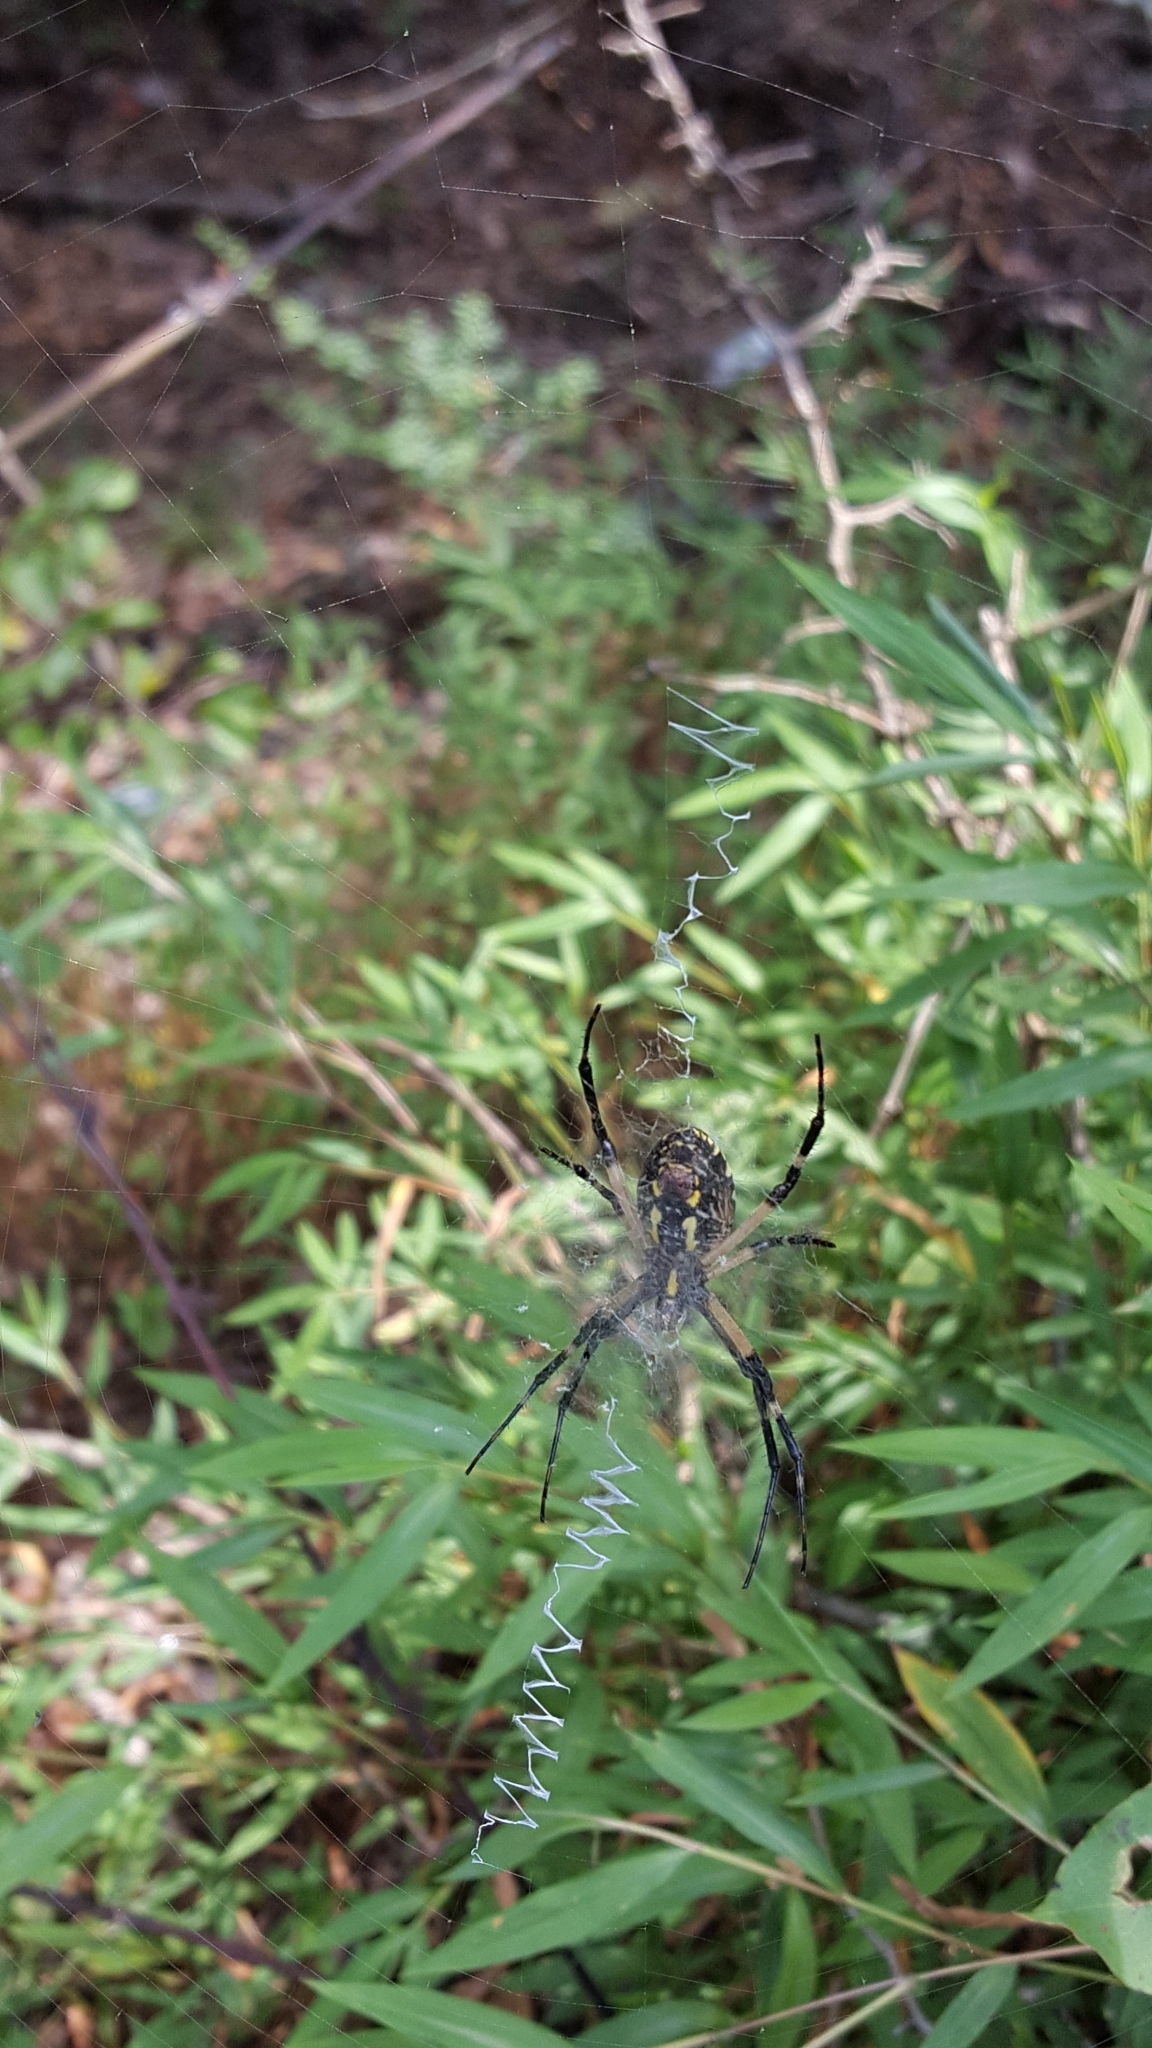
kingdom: Animalia
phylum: Arthropoda
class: Arachnida
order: Araneae
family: Araneidae
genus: Argiope
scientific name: Argiope aurantia
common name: Orb weavers
